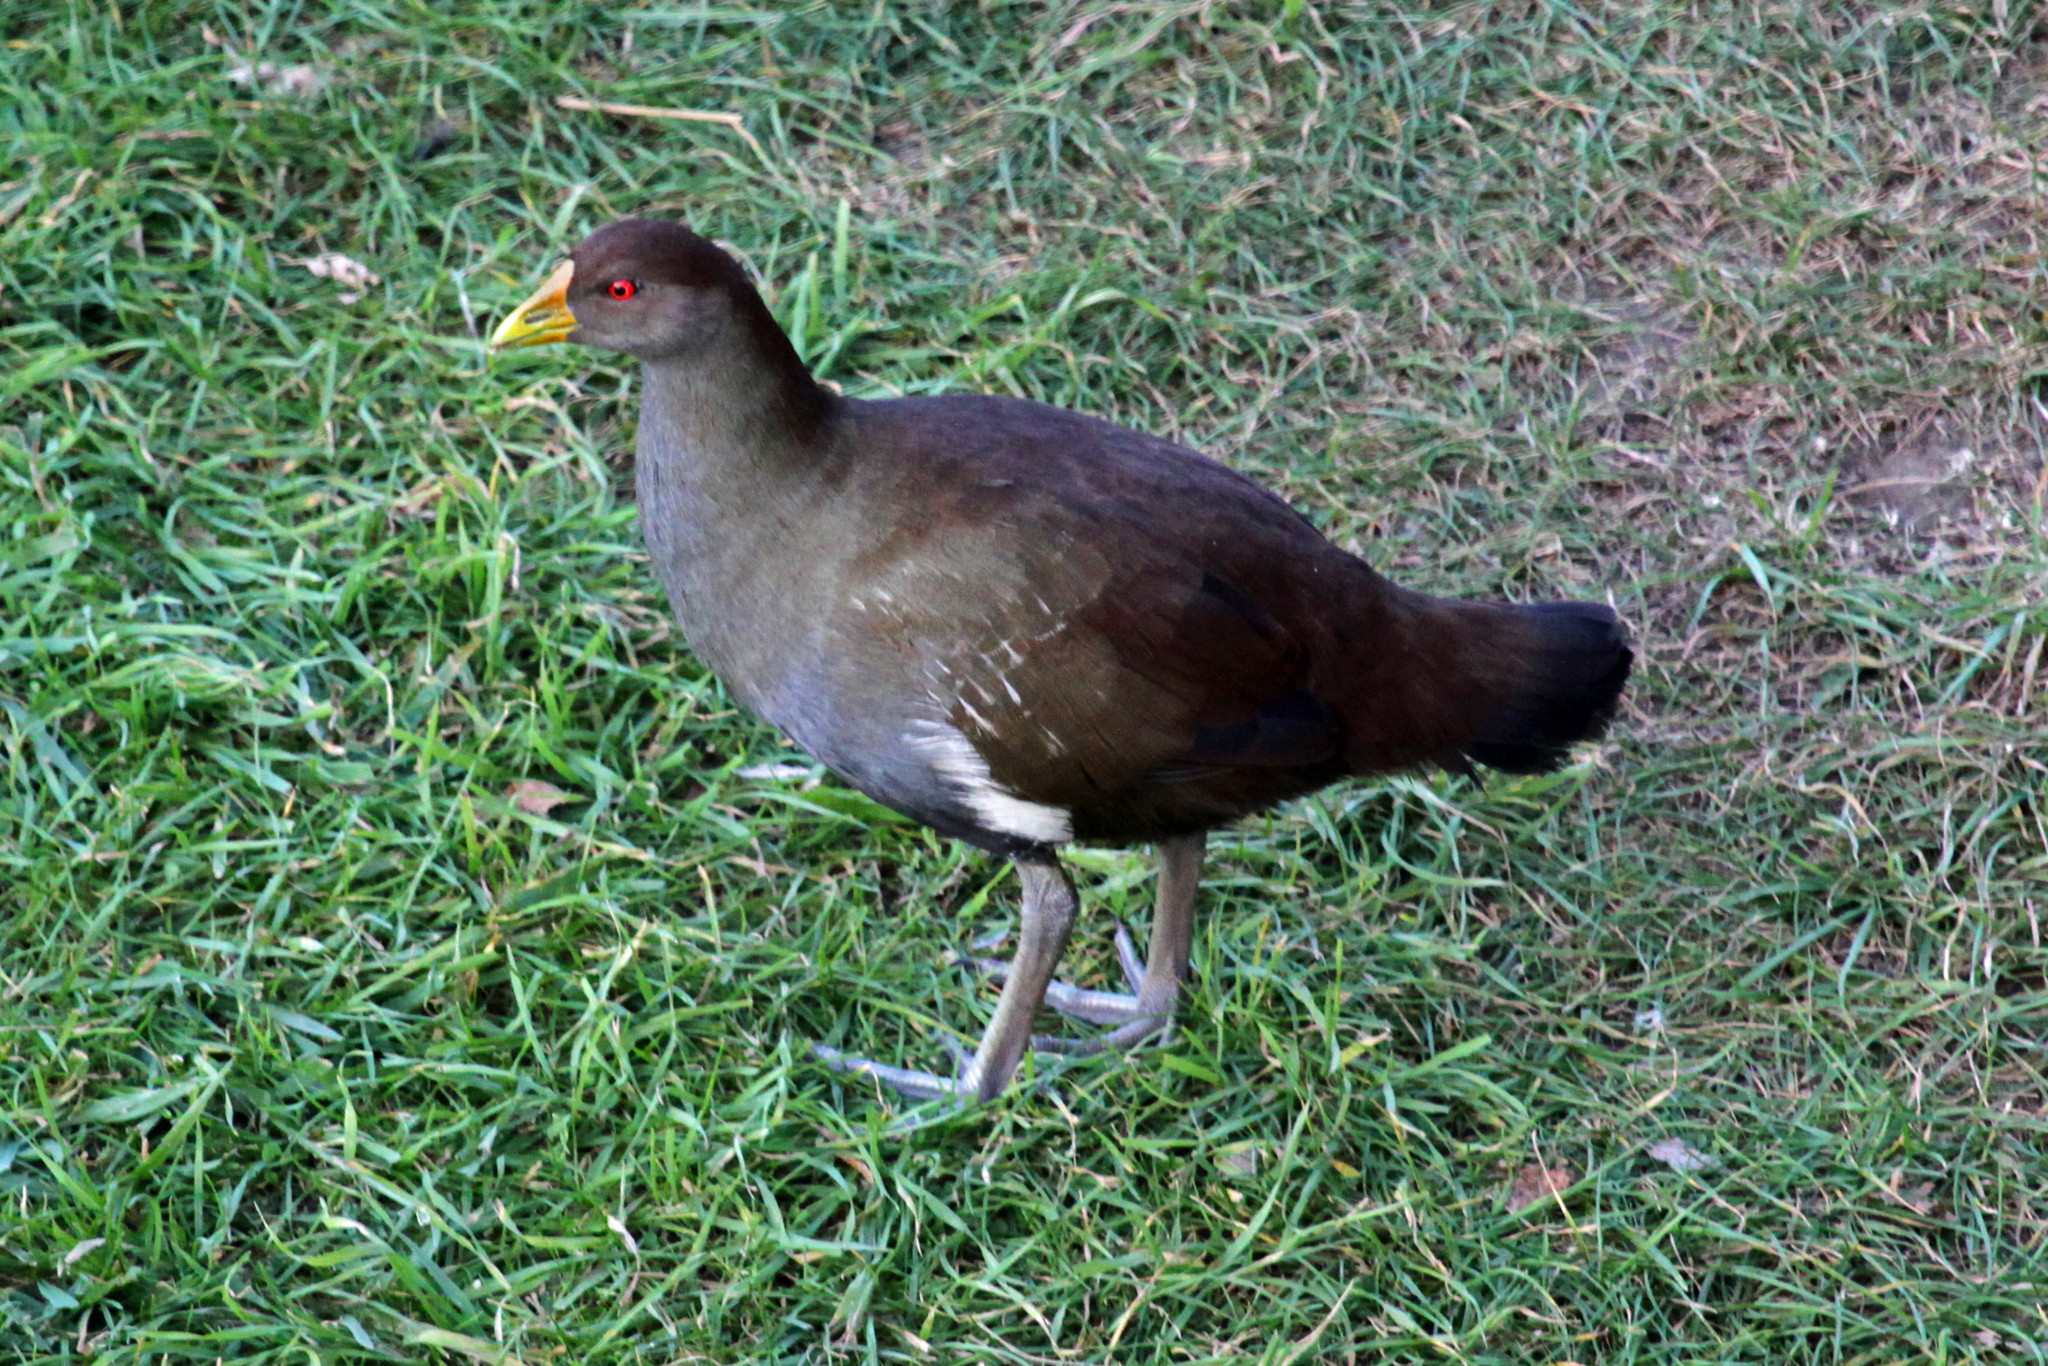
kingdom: Animalia
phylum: Chordata
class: Aves
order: Gruiformes
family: Rallidae
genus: Gallinula
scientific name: Gallinula mortierii
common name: Tasmanian nativehen
